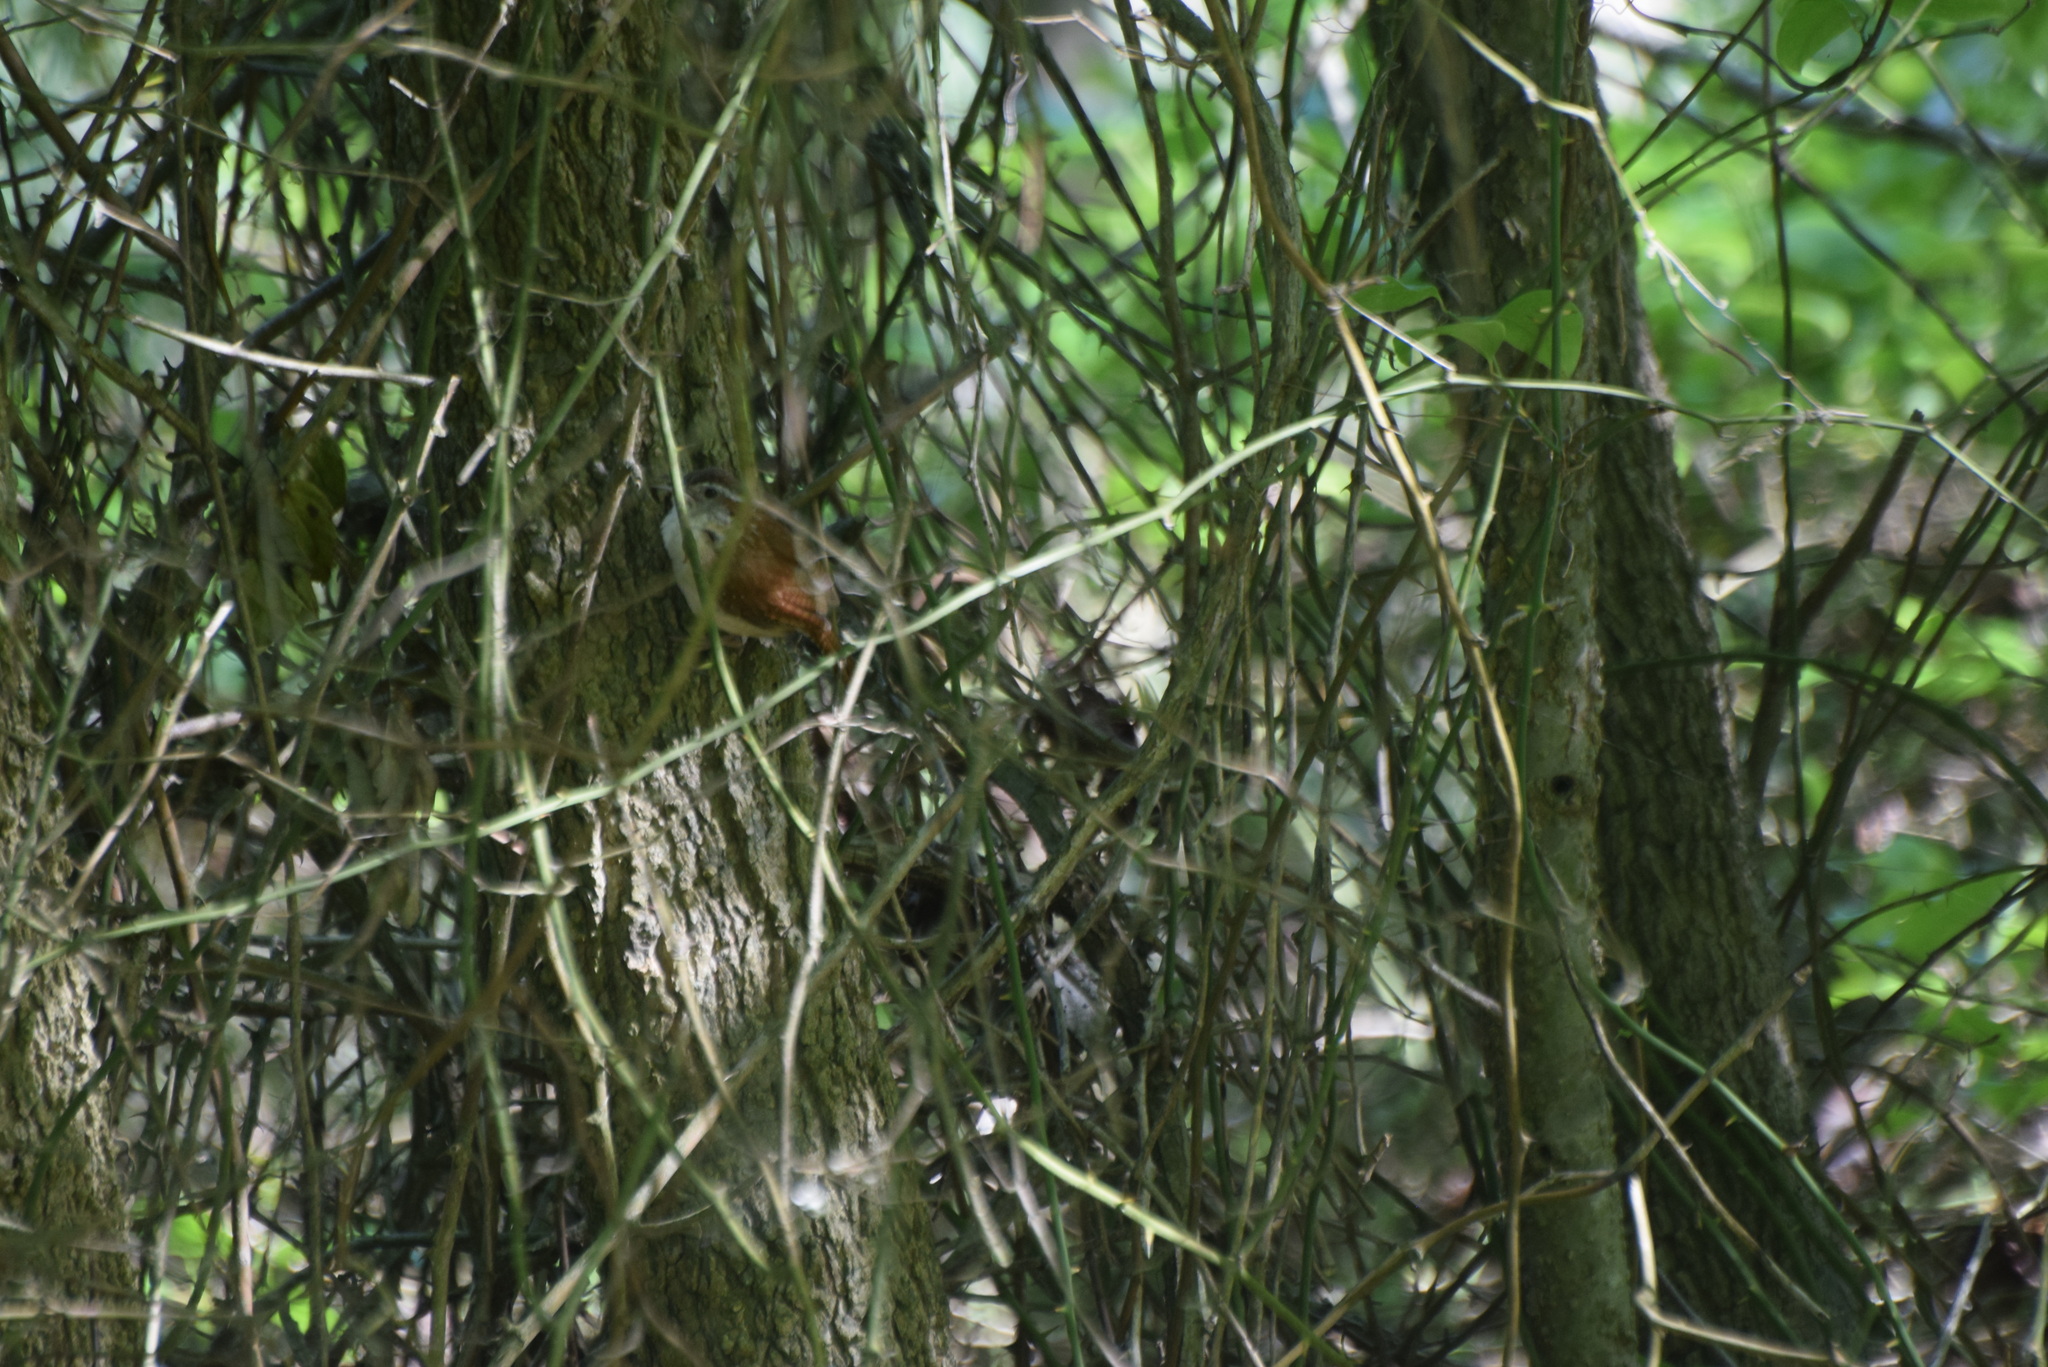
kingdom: Animalia
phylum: Chordata
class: Aves
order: Passeriformes
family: Troglodytidae
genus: Thryothorus
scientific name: Thryothorus ludovicianus
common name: Carolina wren
